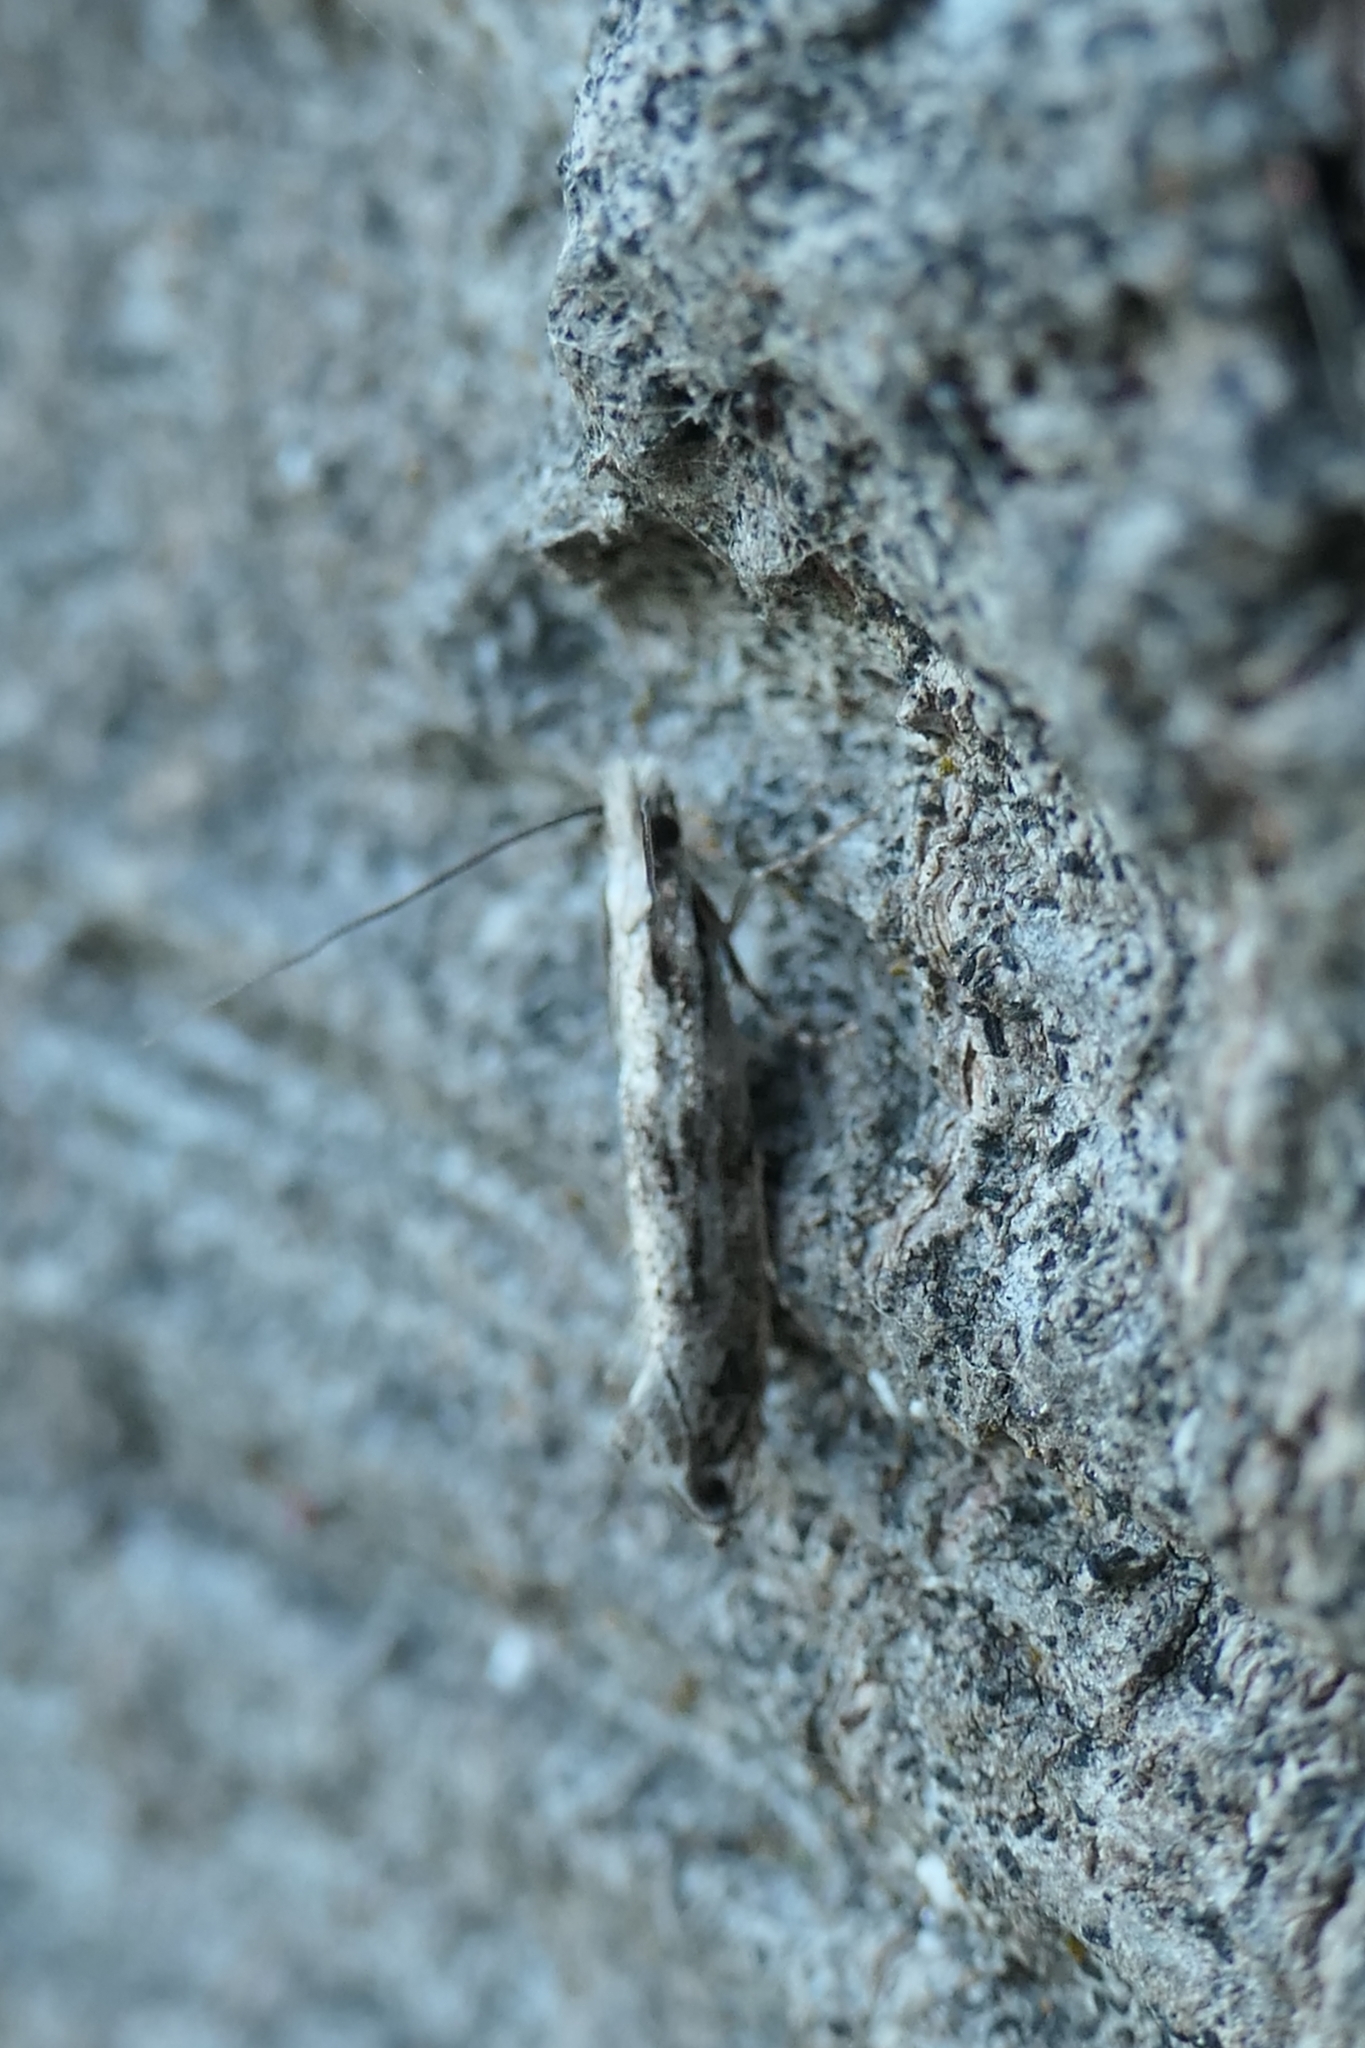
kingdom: Animalia
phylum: Arthropoda
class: Insecta
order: Lepidoptera
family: Tineidae
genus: Erechthias
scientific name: Erechthias fulguritella
